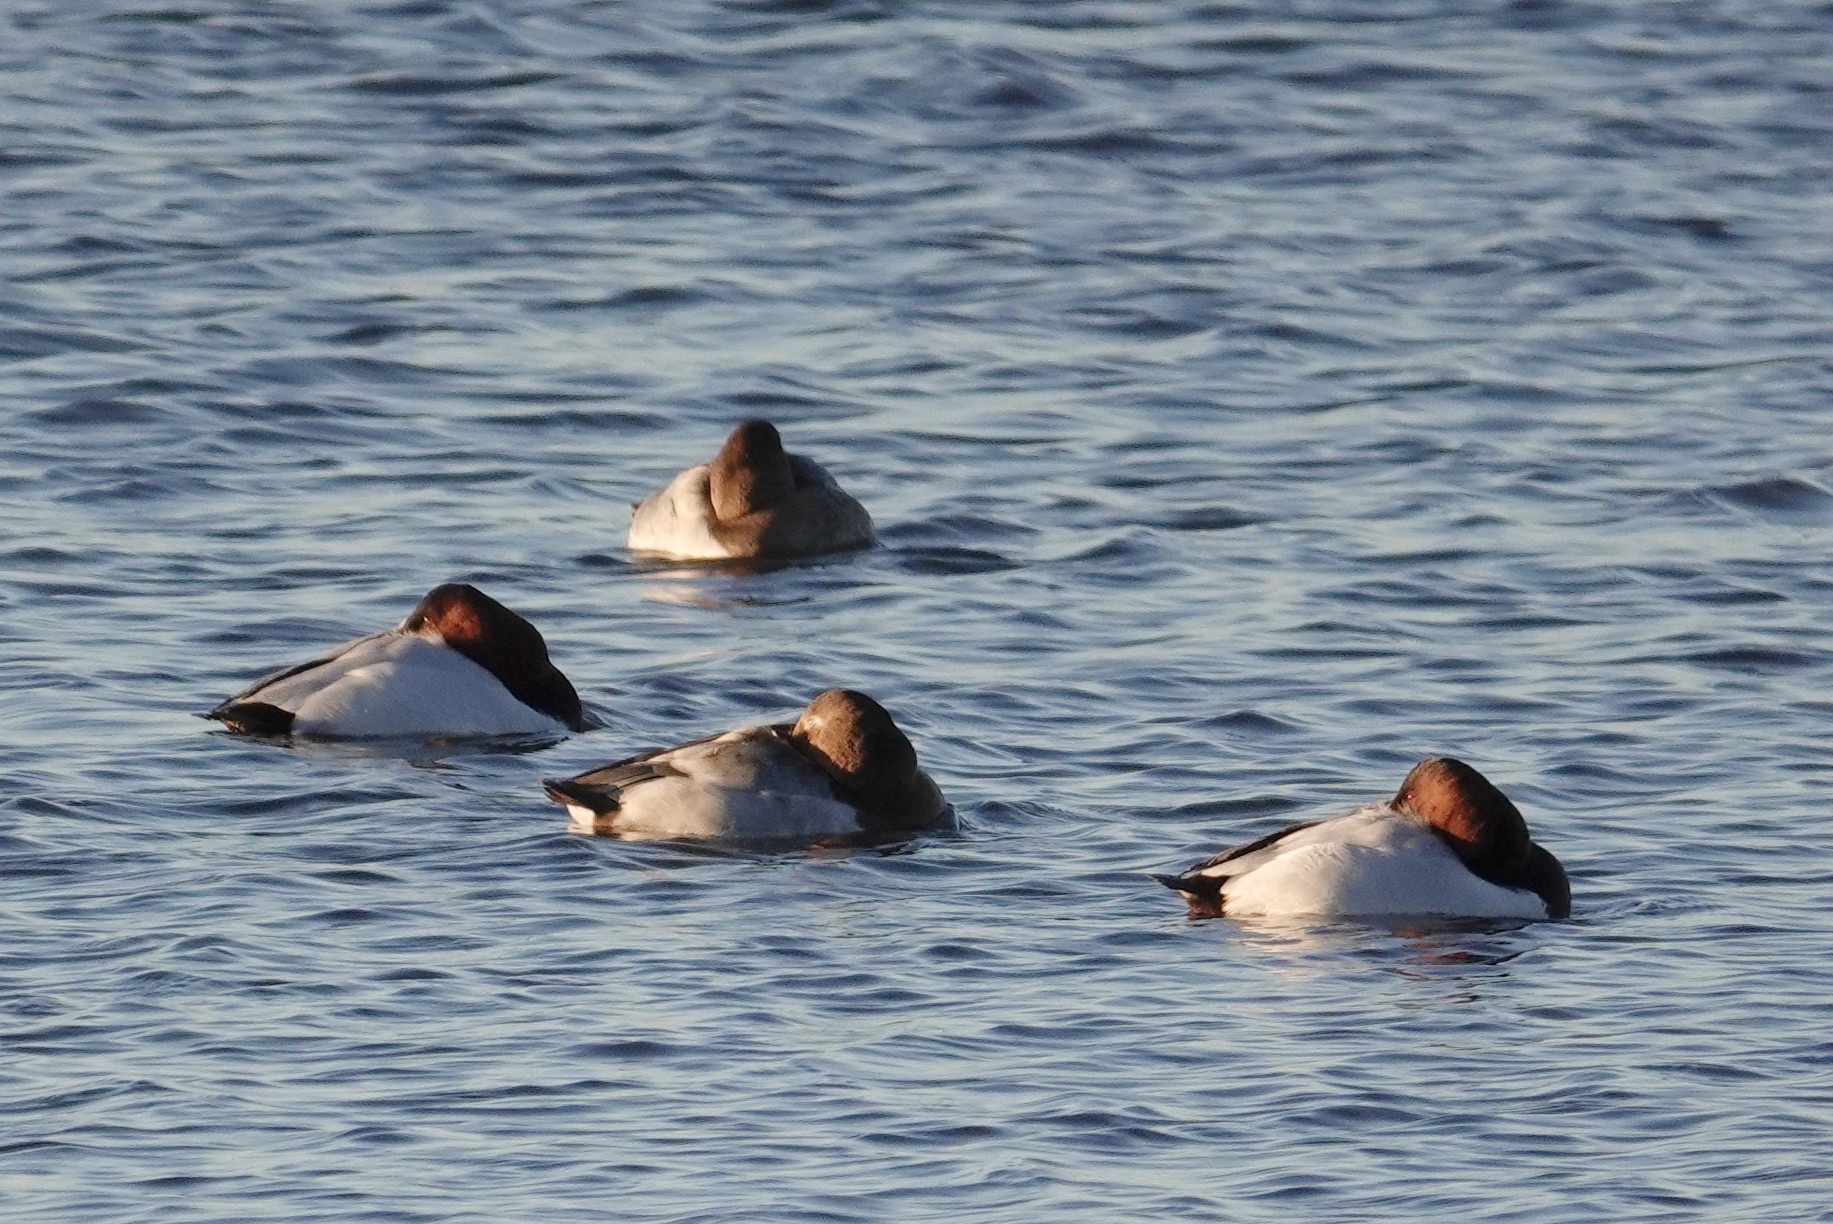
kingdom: Animalia
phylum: Chordata
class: Aves
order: Anseriformes
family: Anatidae
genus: Aythya
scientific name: Aythya valisineria
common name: Canvasback
